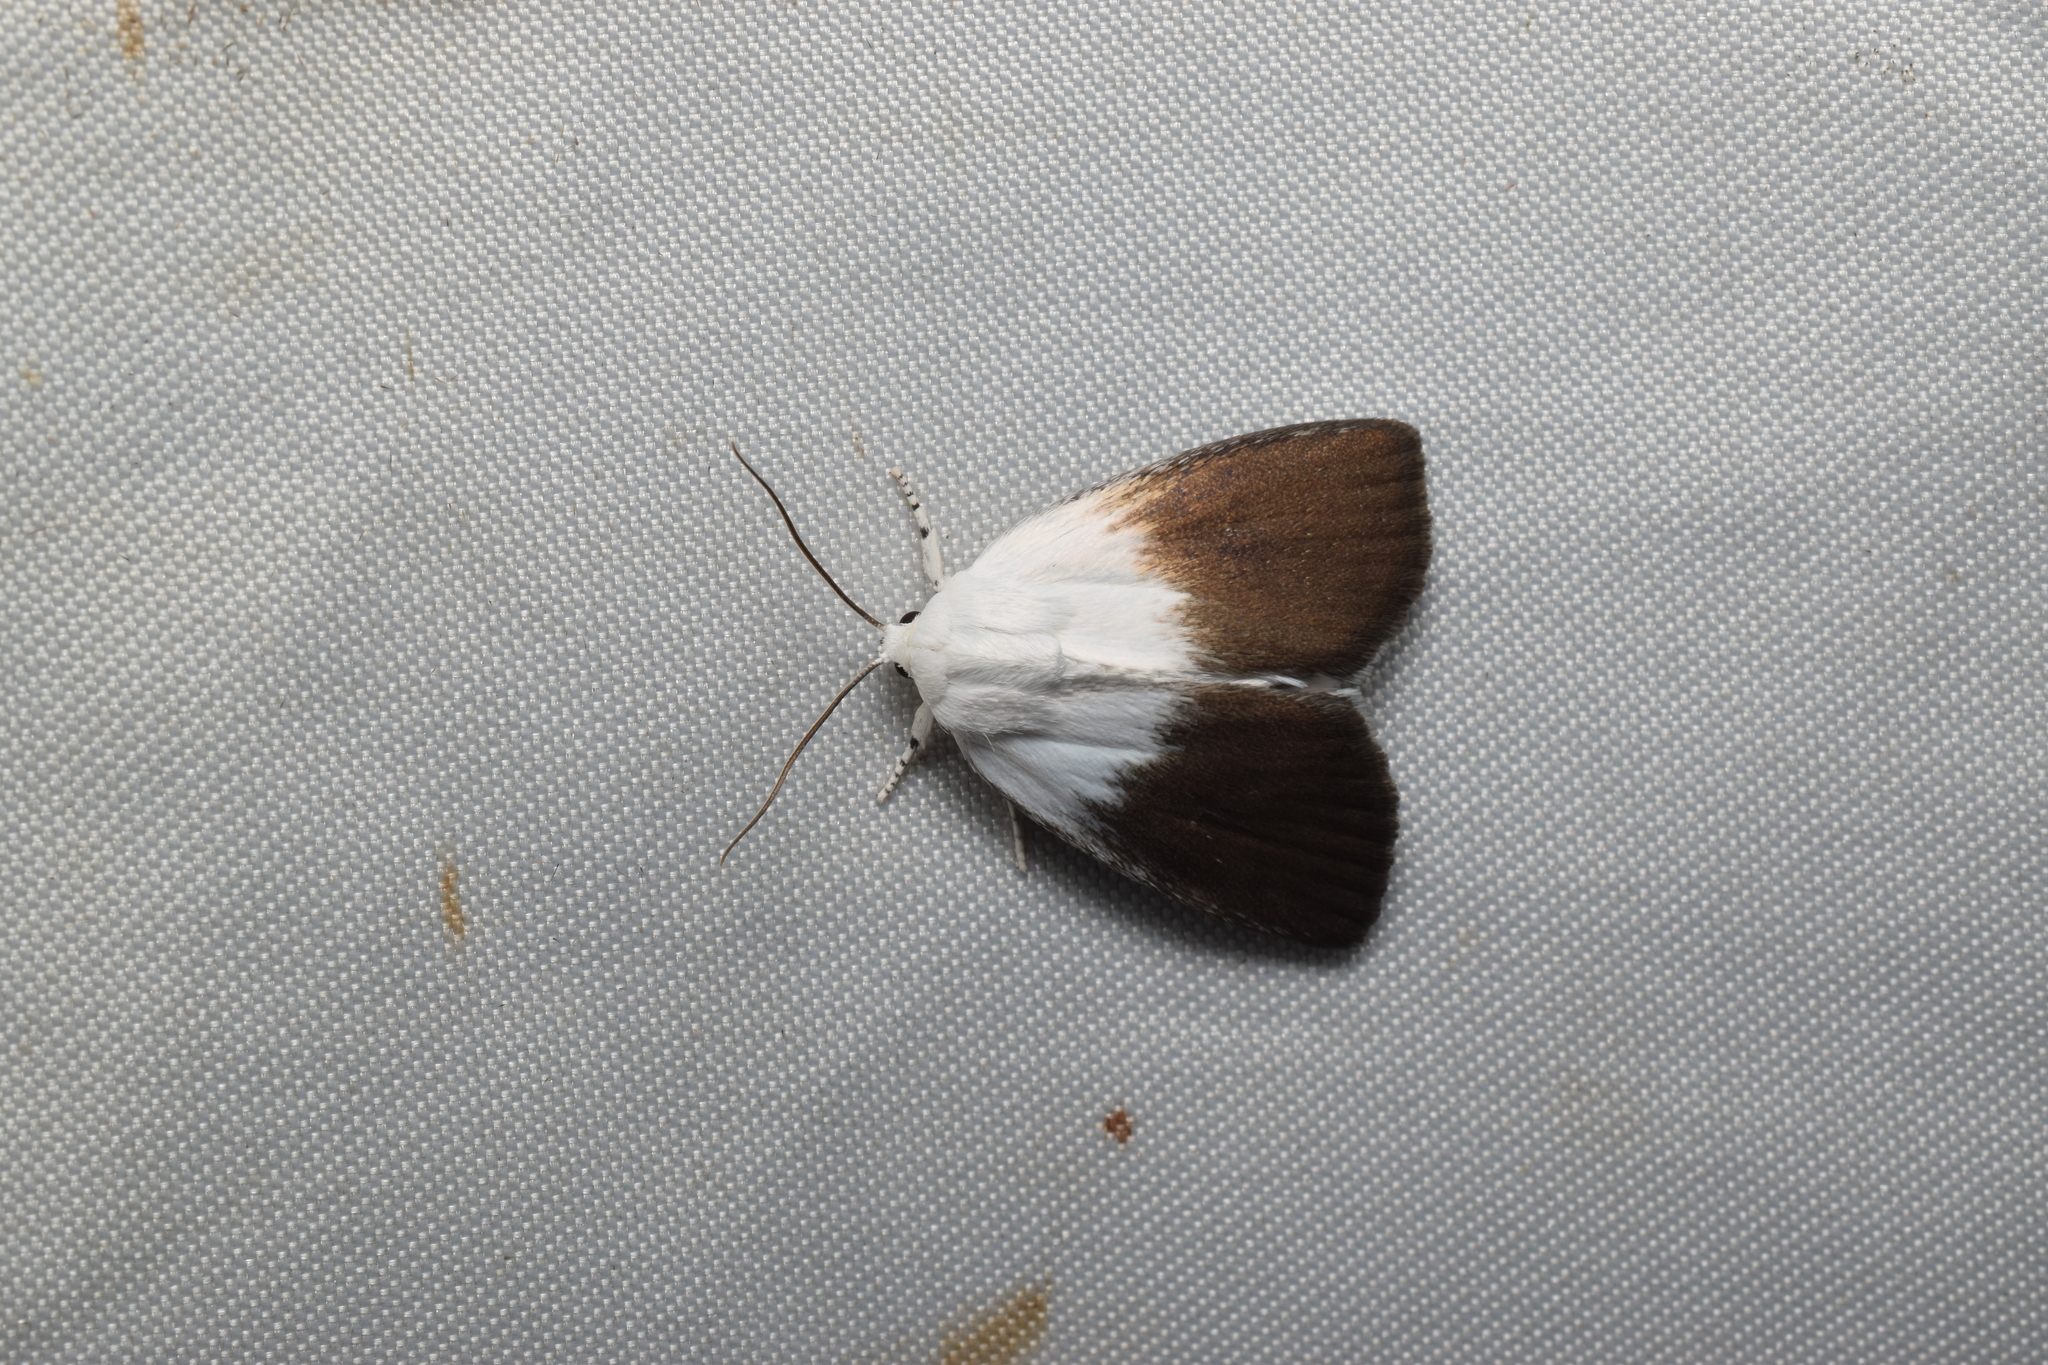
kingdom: Animalia
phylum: Arthropoda
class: Insecta
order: Lepidoptera
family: Noctuidae
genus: Chasminodes
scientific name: Chasminodes nigrilinea
